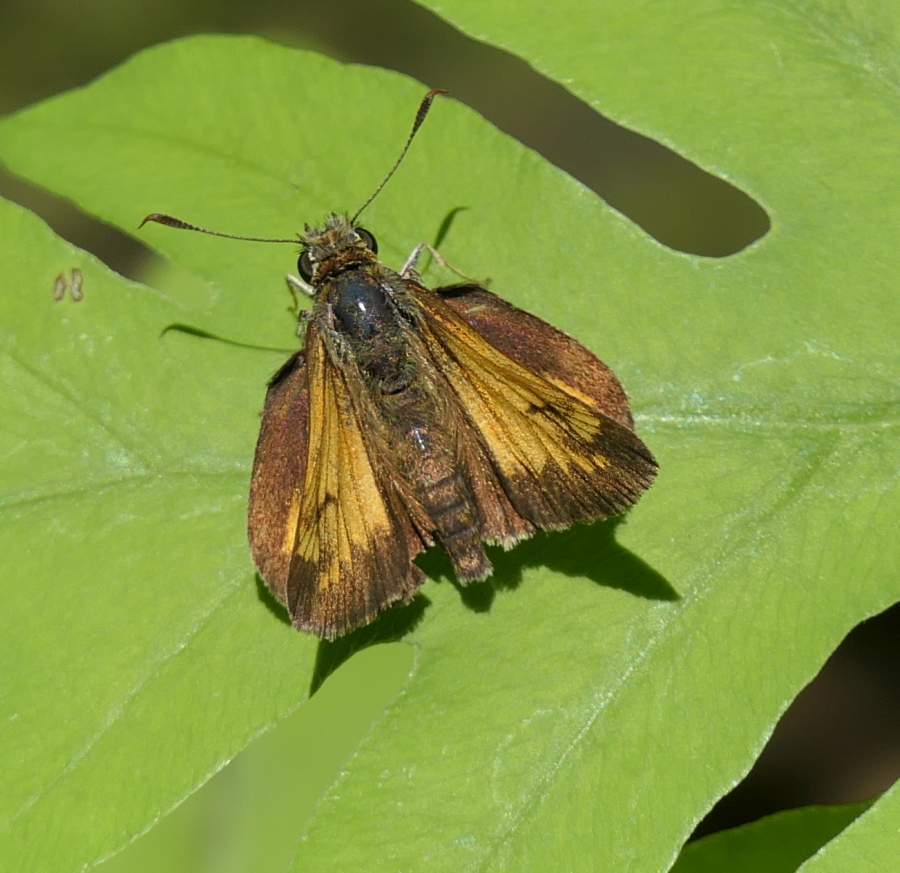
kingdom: Animalia
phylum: Arthropoda
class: Insecta
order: Lepidoptera
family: Hesperiidae
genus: Lon
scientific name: Lon hobomok
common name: Hobomok skipper
